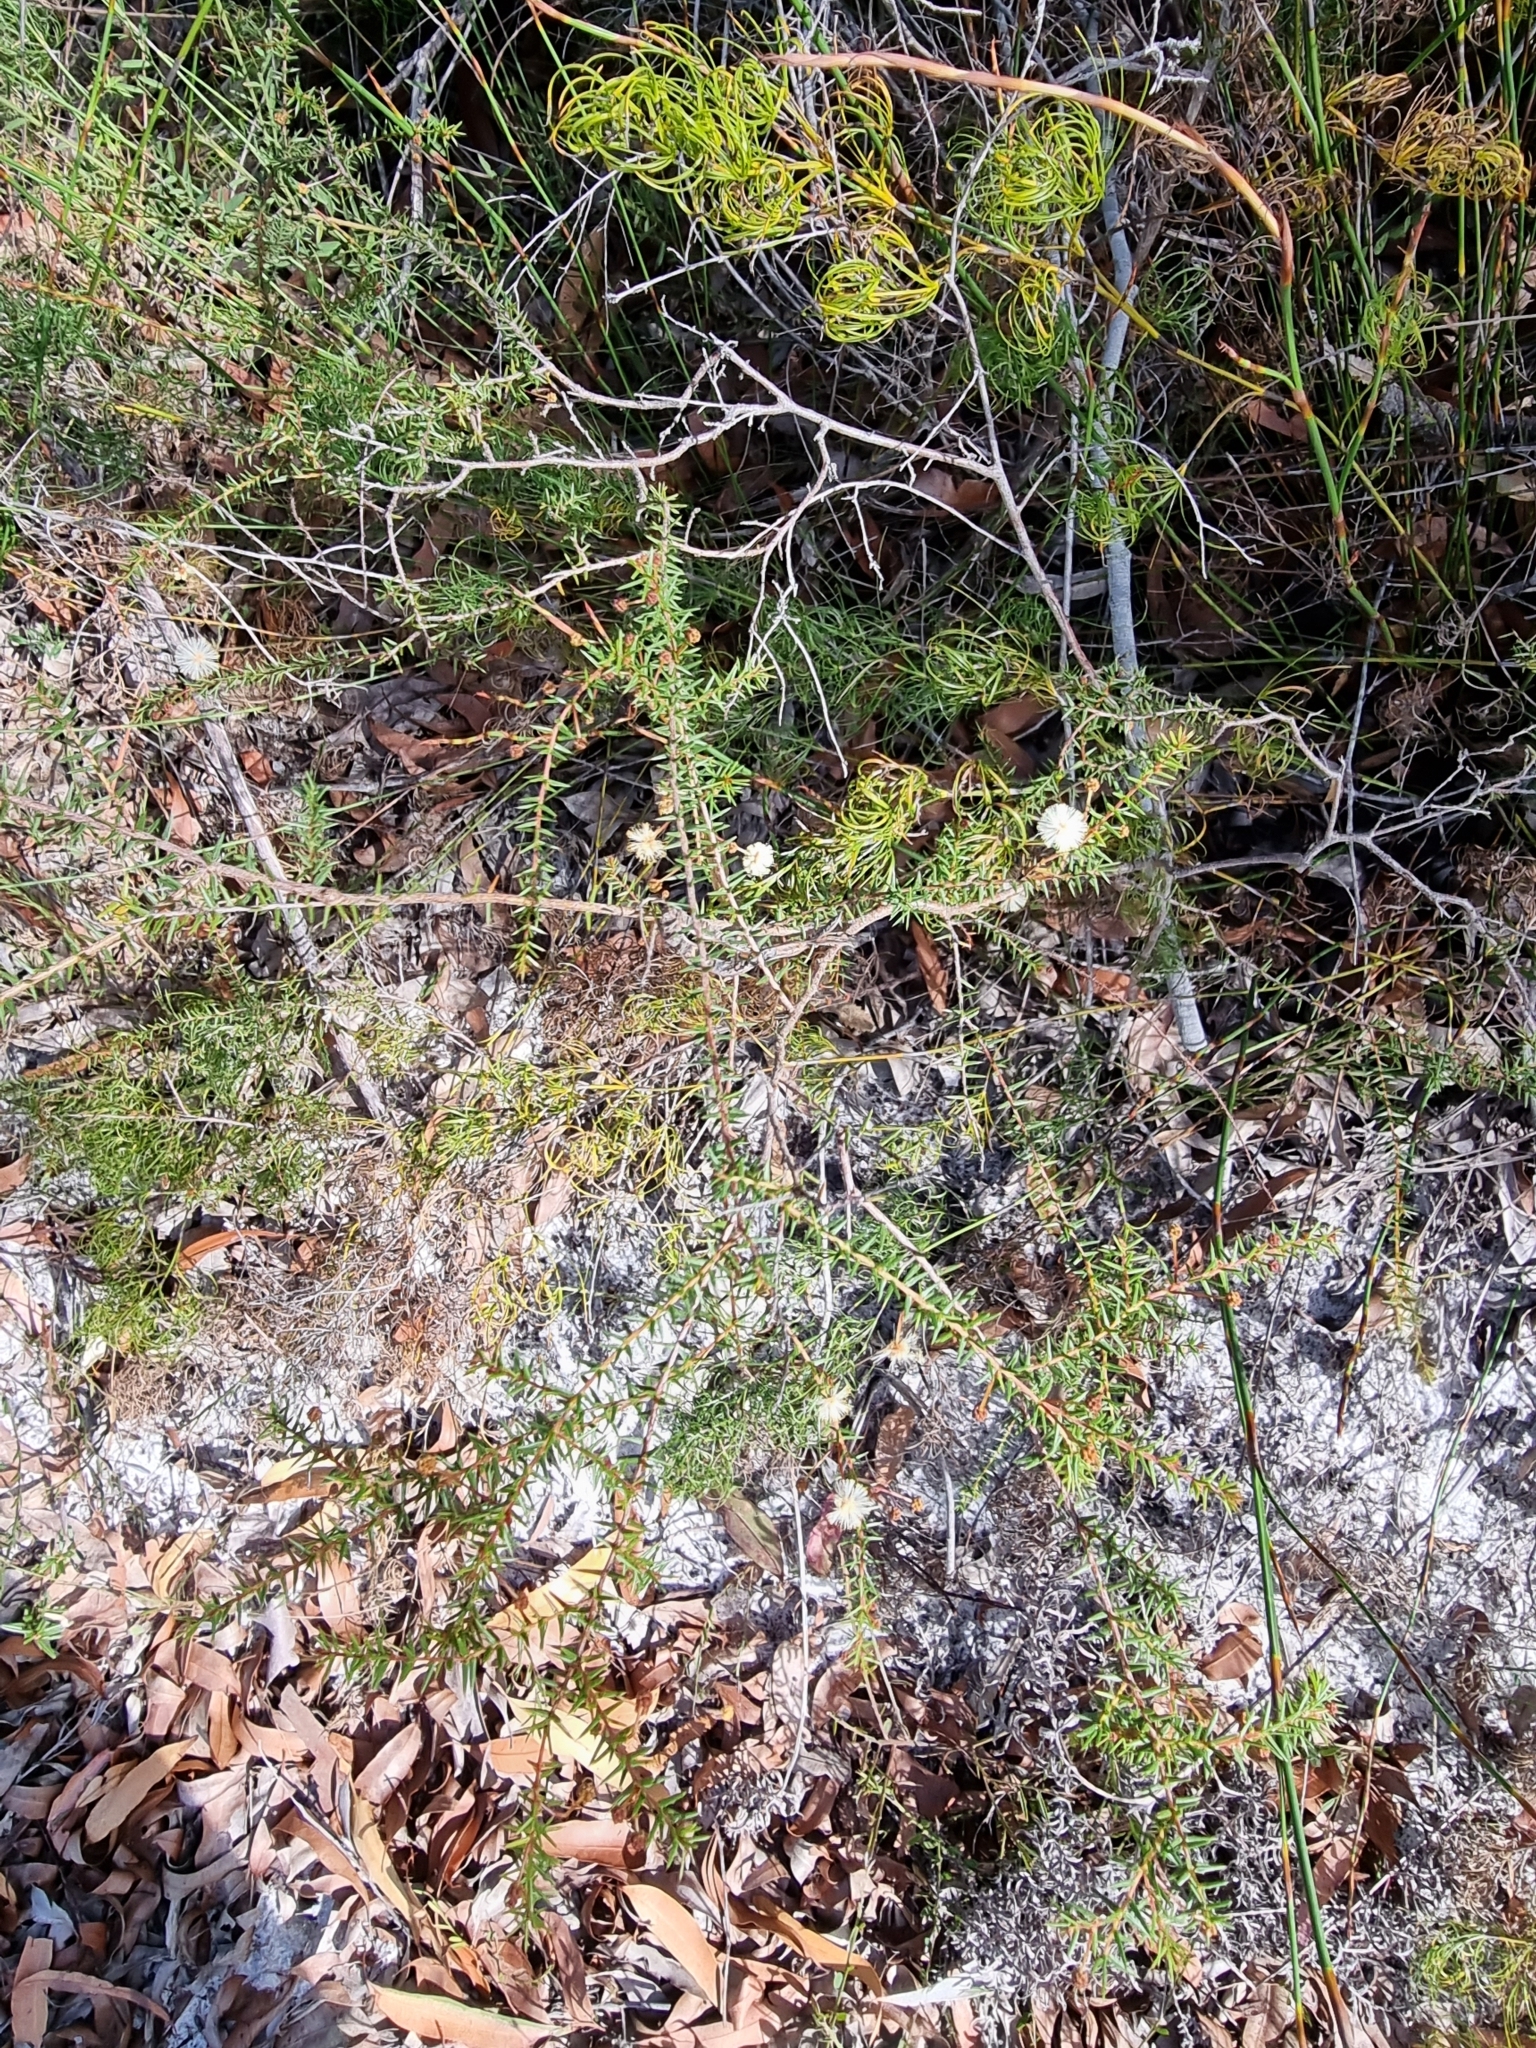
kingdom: Plantae
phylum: Tracheophyta
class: Magnoliopsida
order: Fabales
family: Fabaceae
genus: Acacia
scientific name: Acacia ulicifolia
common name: Juniper wattle
